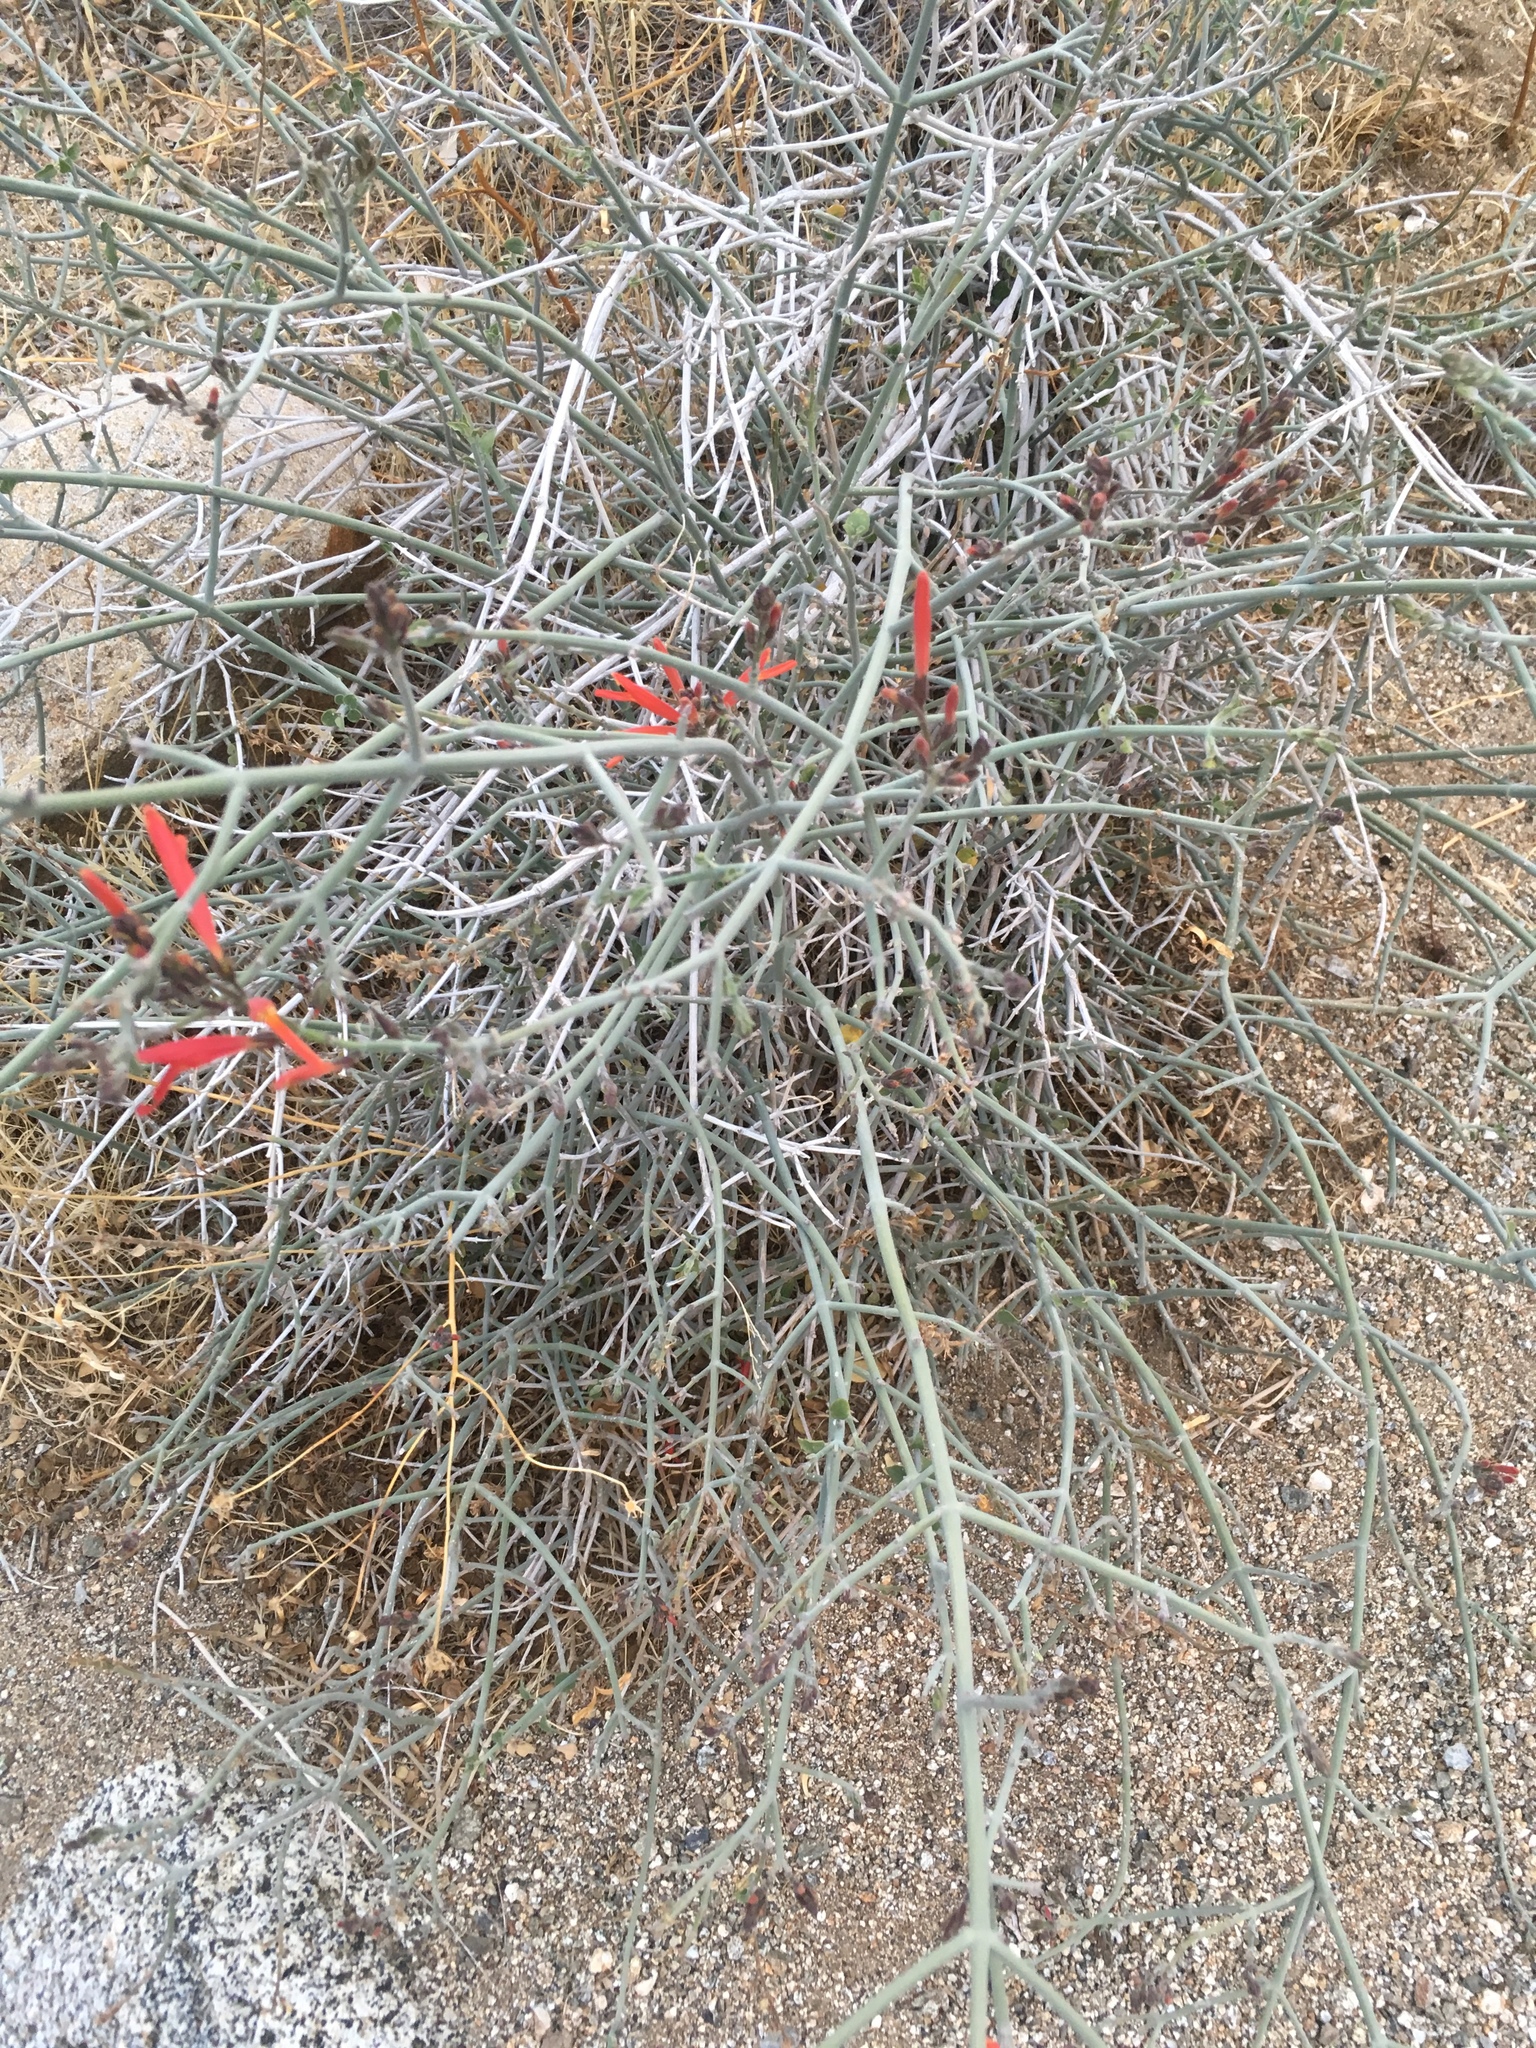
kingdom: Plantae
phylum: Tracheophyta
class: Magnoliopsida
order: Lamiales
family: Acanthaceae
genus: Justicia
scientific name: Justicia californica
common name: Chuparosa-honeysuckle
